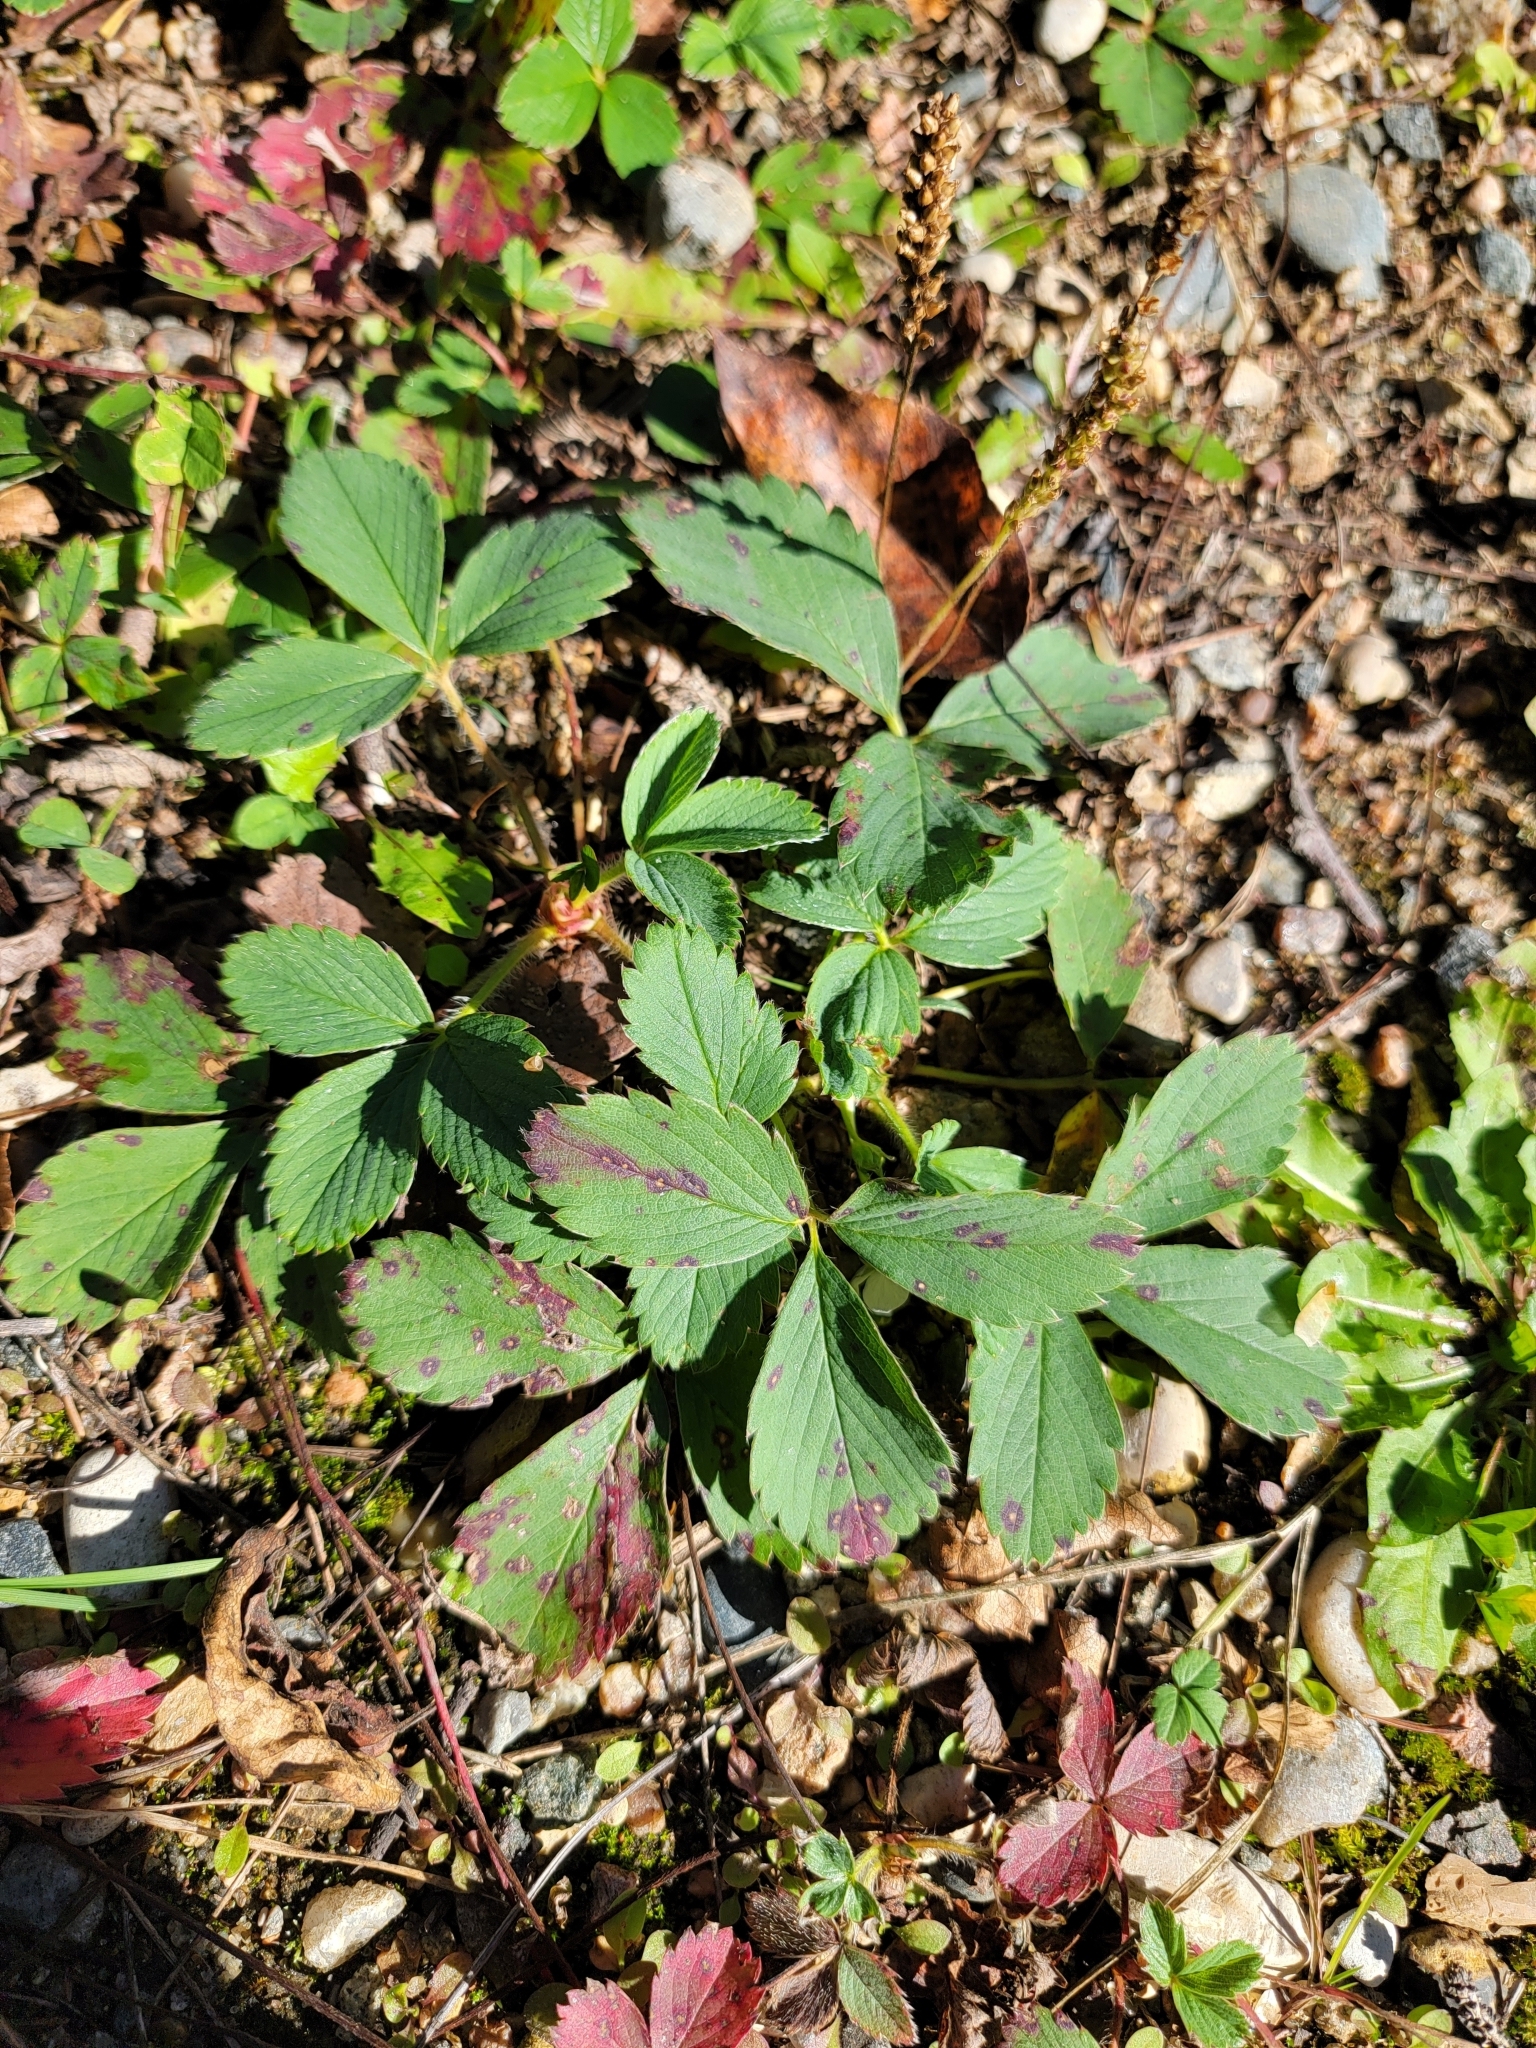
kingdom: Plantae
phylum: Tracheophyta
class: Magnoliopsida
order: Rosales
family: Rosaceae
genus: Fragaria
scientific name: Fragaria virginiana
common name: Thickleaved wild strawberry
